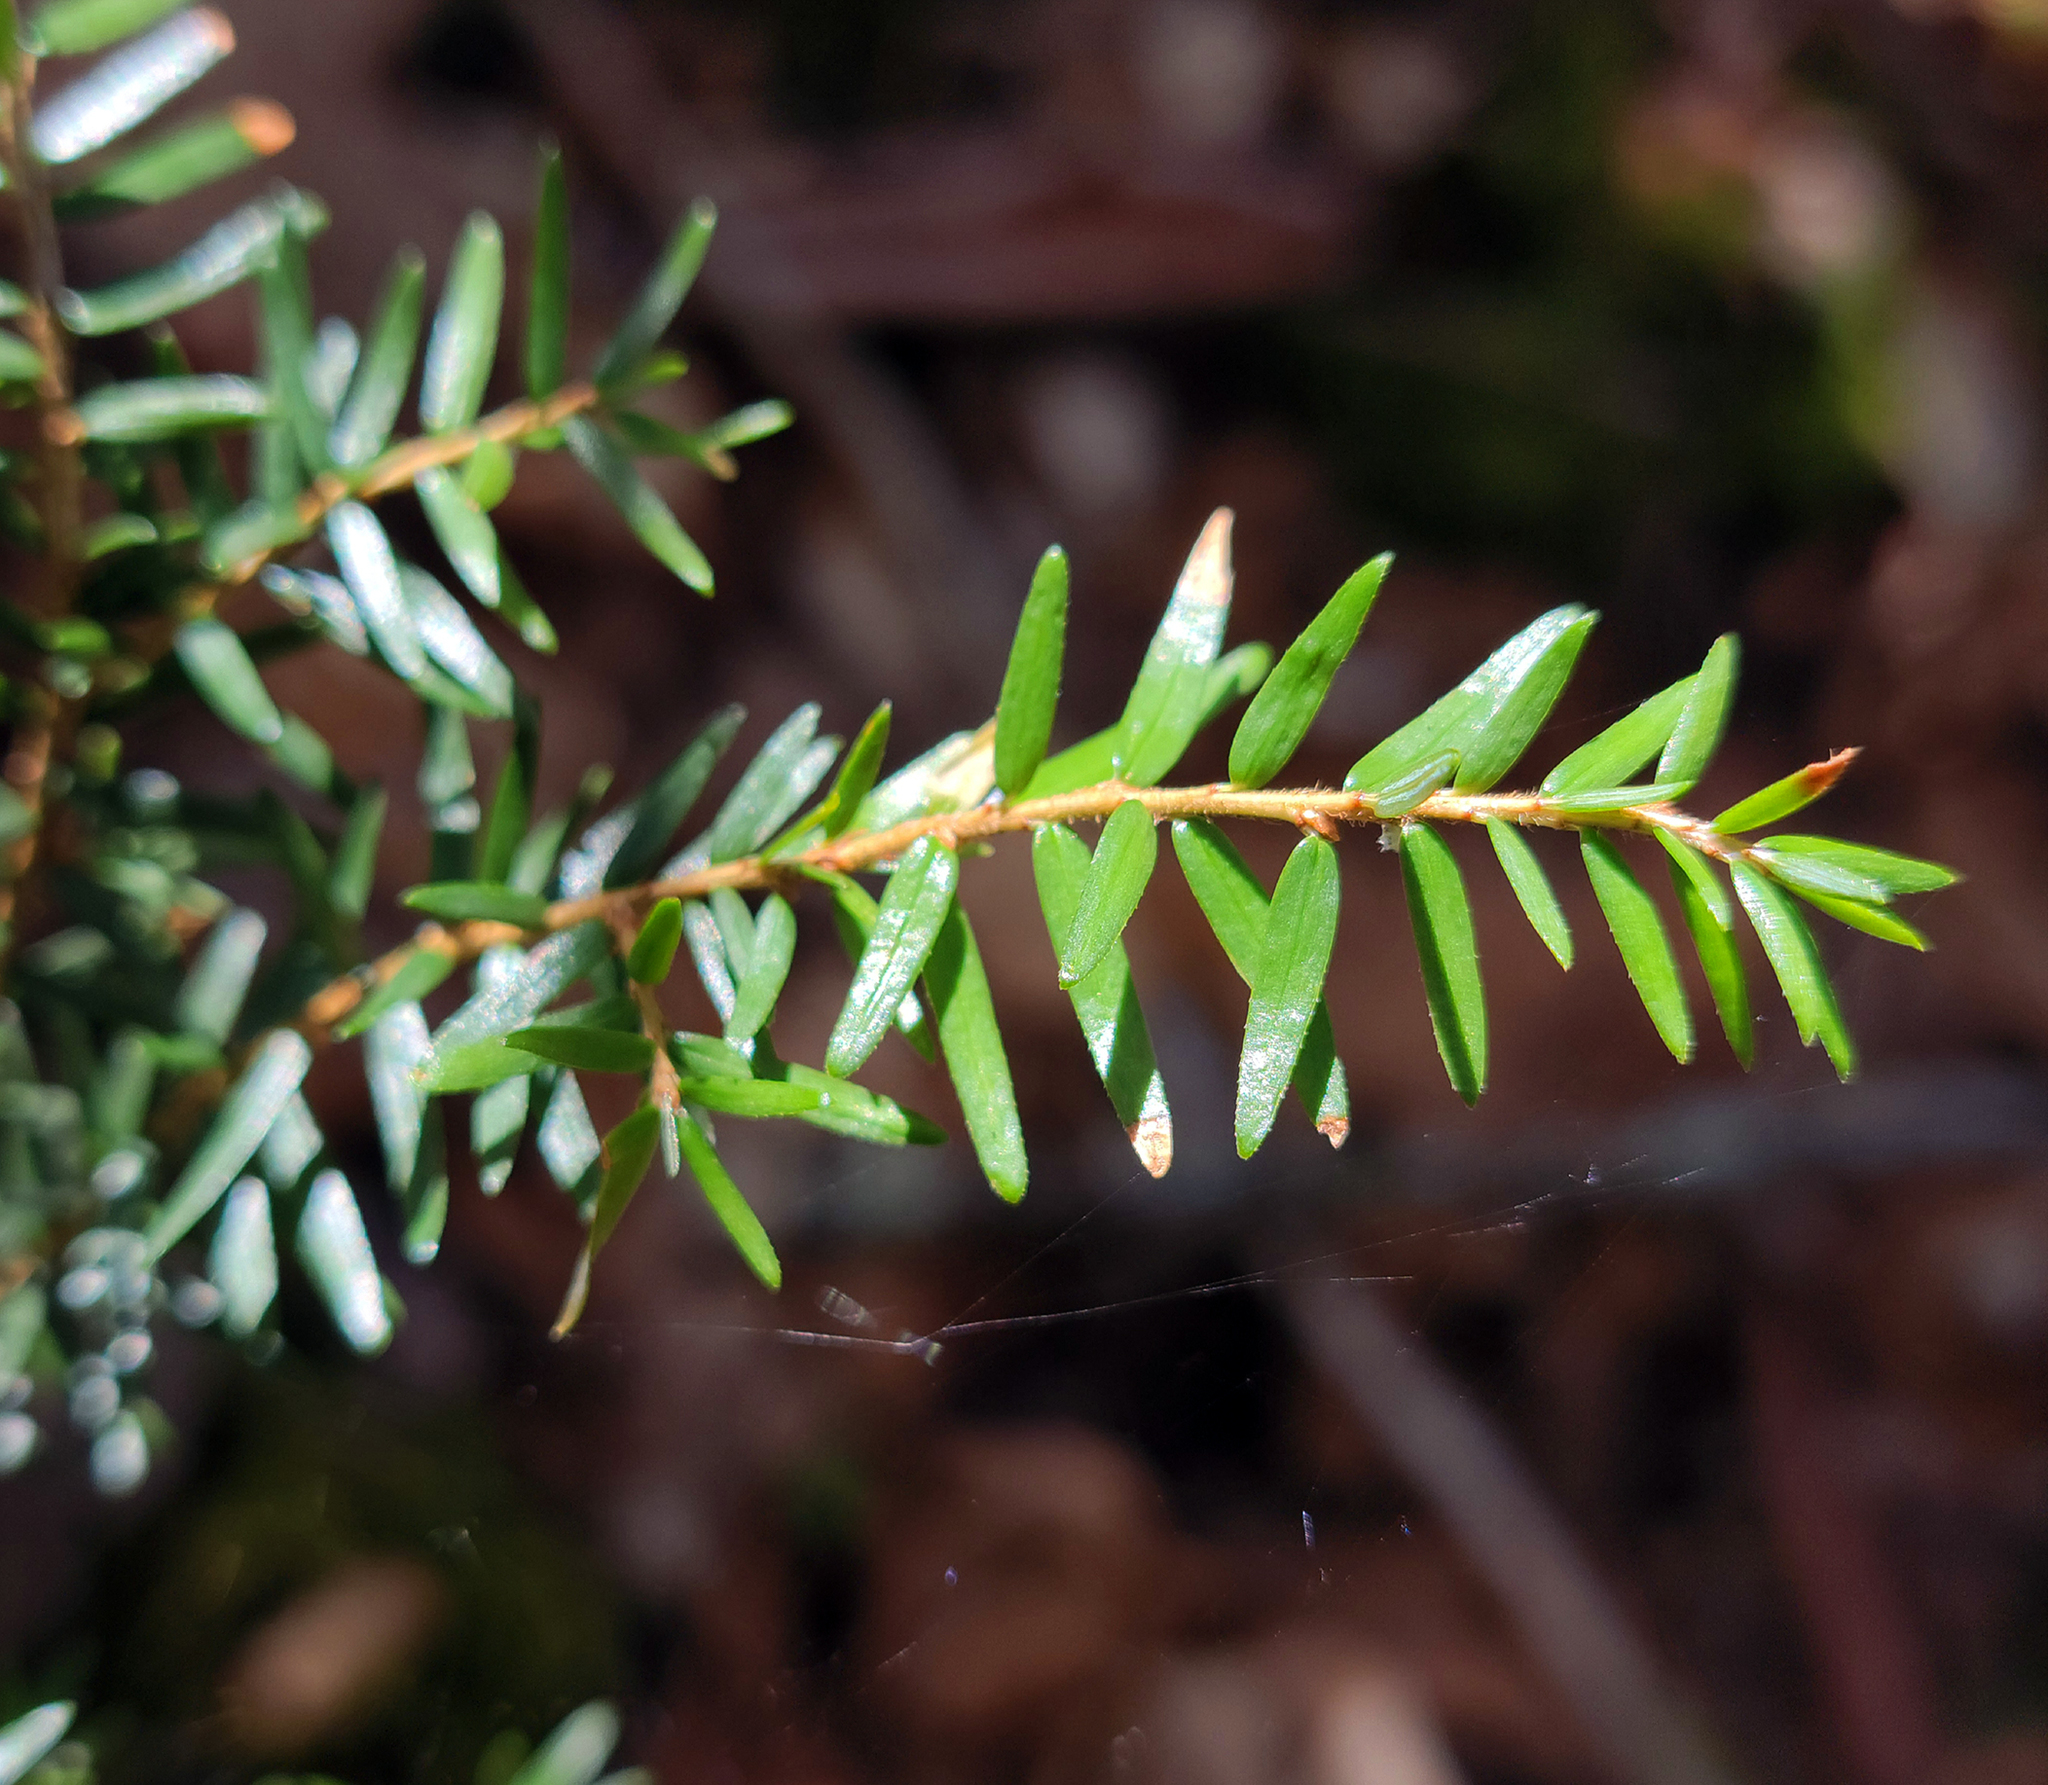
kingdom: Plantae
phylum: Tracheophyta
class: Pinopsida
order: Pinales
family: Pinaceae
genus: Tsuga
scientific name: Tsuga canadensis
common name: Eastern hemlock
